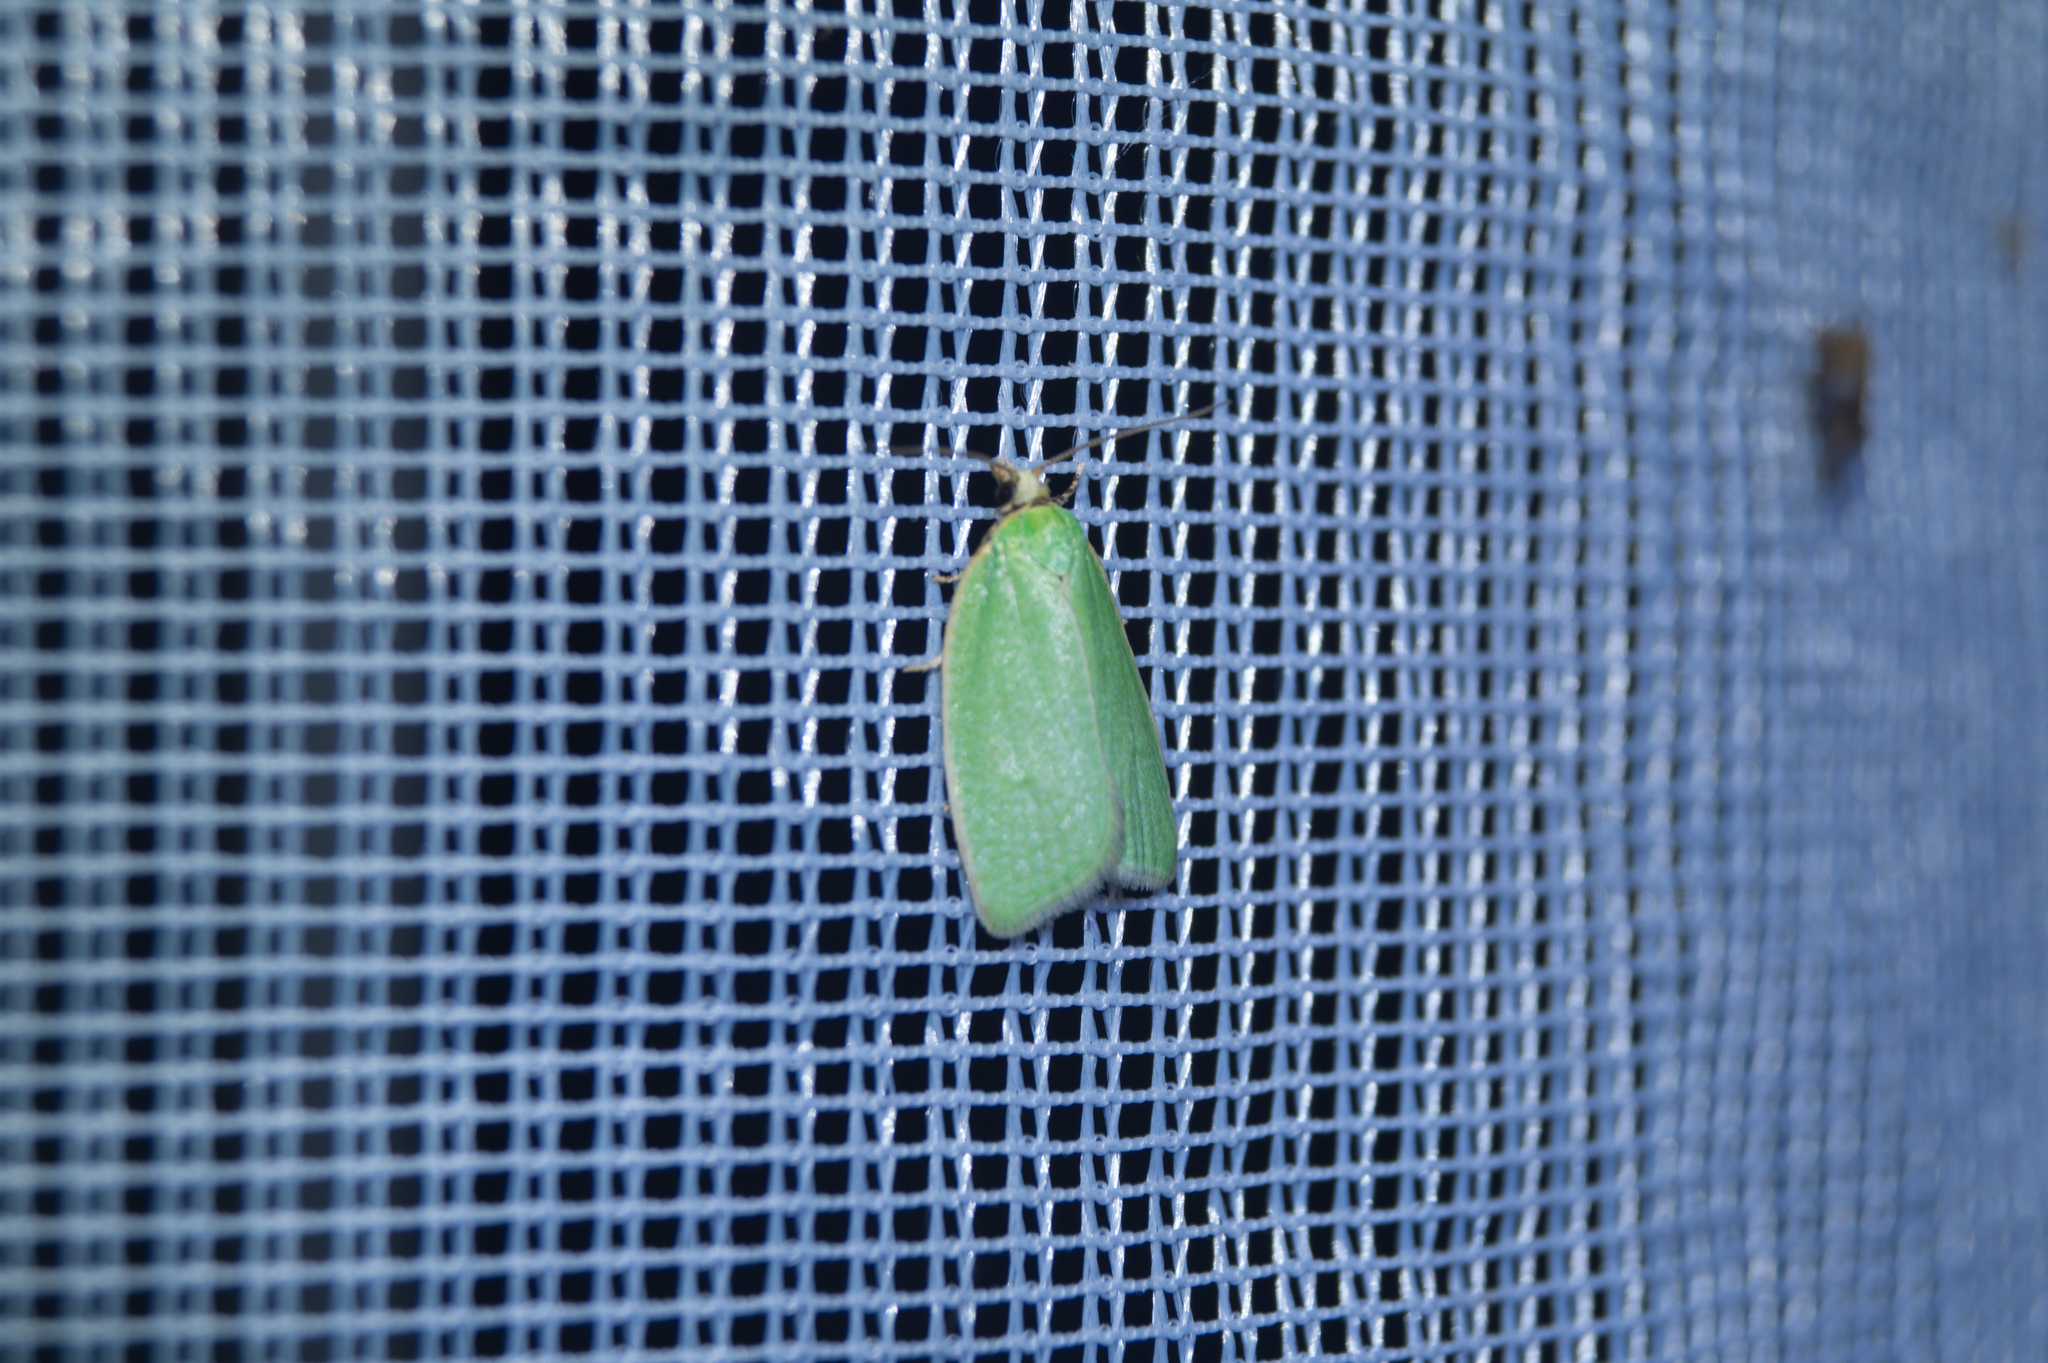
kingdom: Animalia
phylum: Arthropoda
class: Insecta
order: Lepidoptera
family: Tortricidae
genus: Tortrix
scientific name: Tortrix viridana
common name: Green oak tortrix
